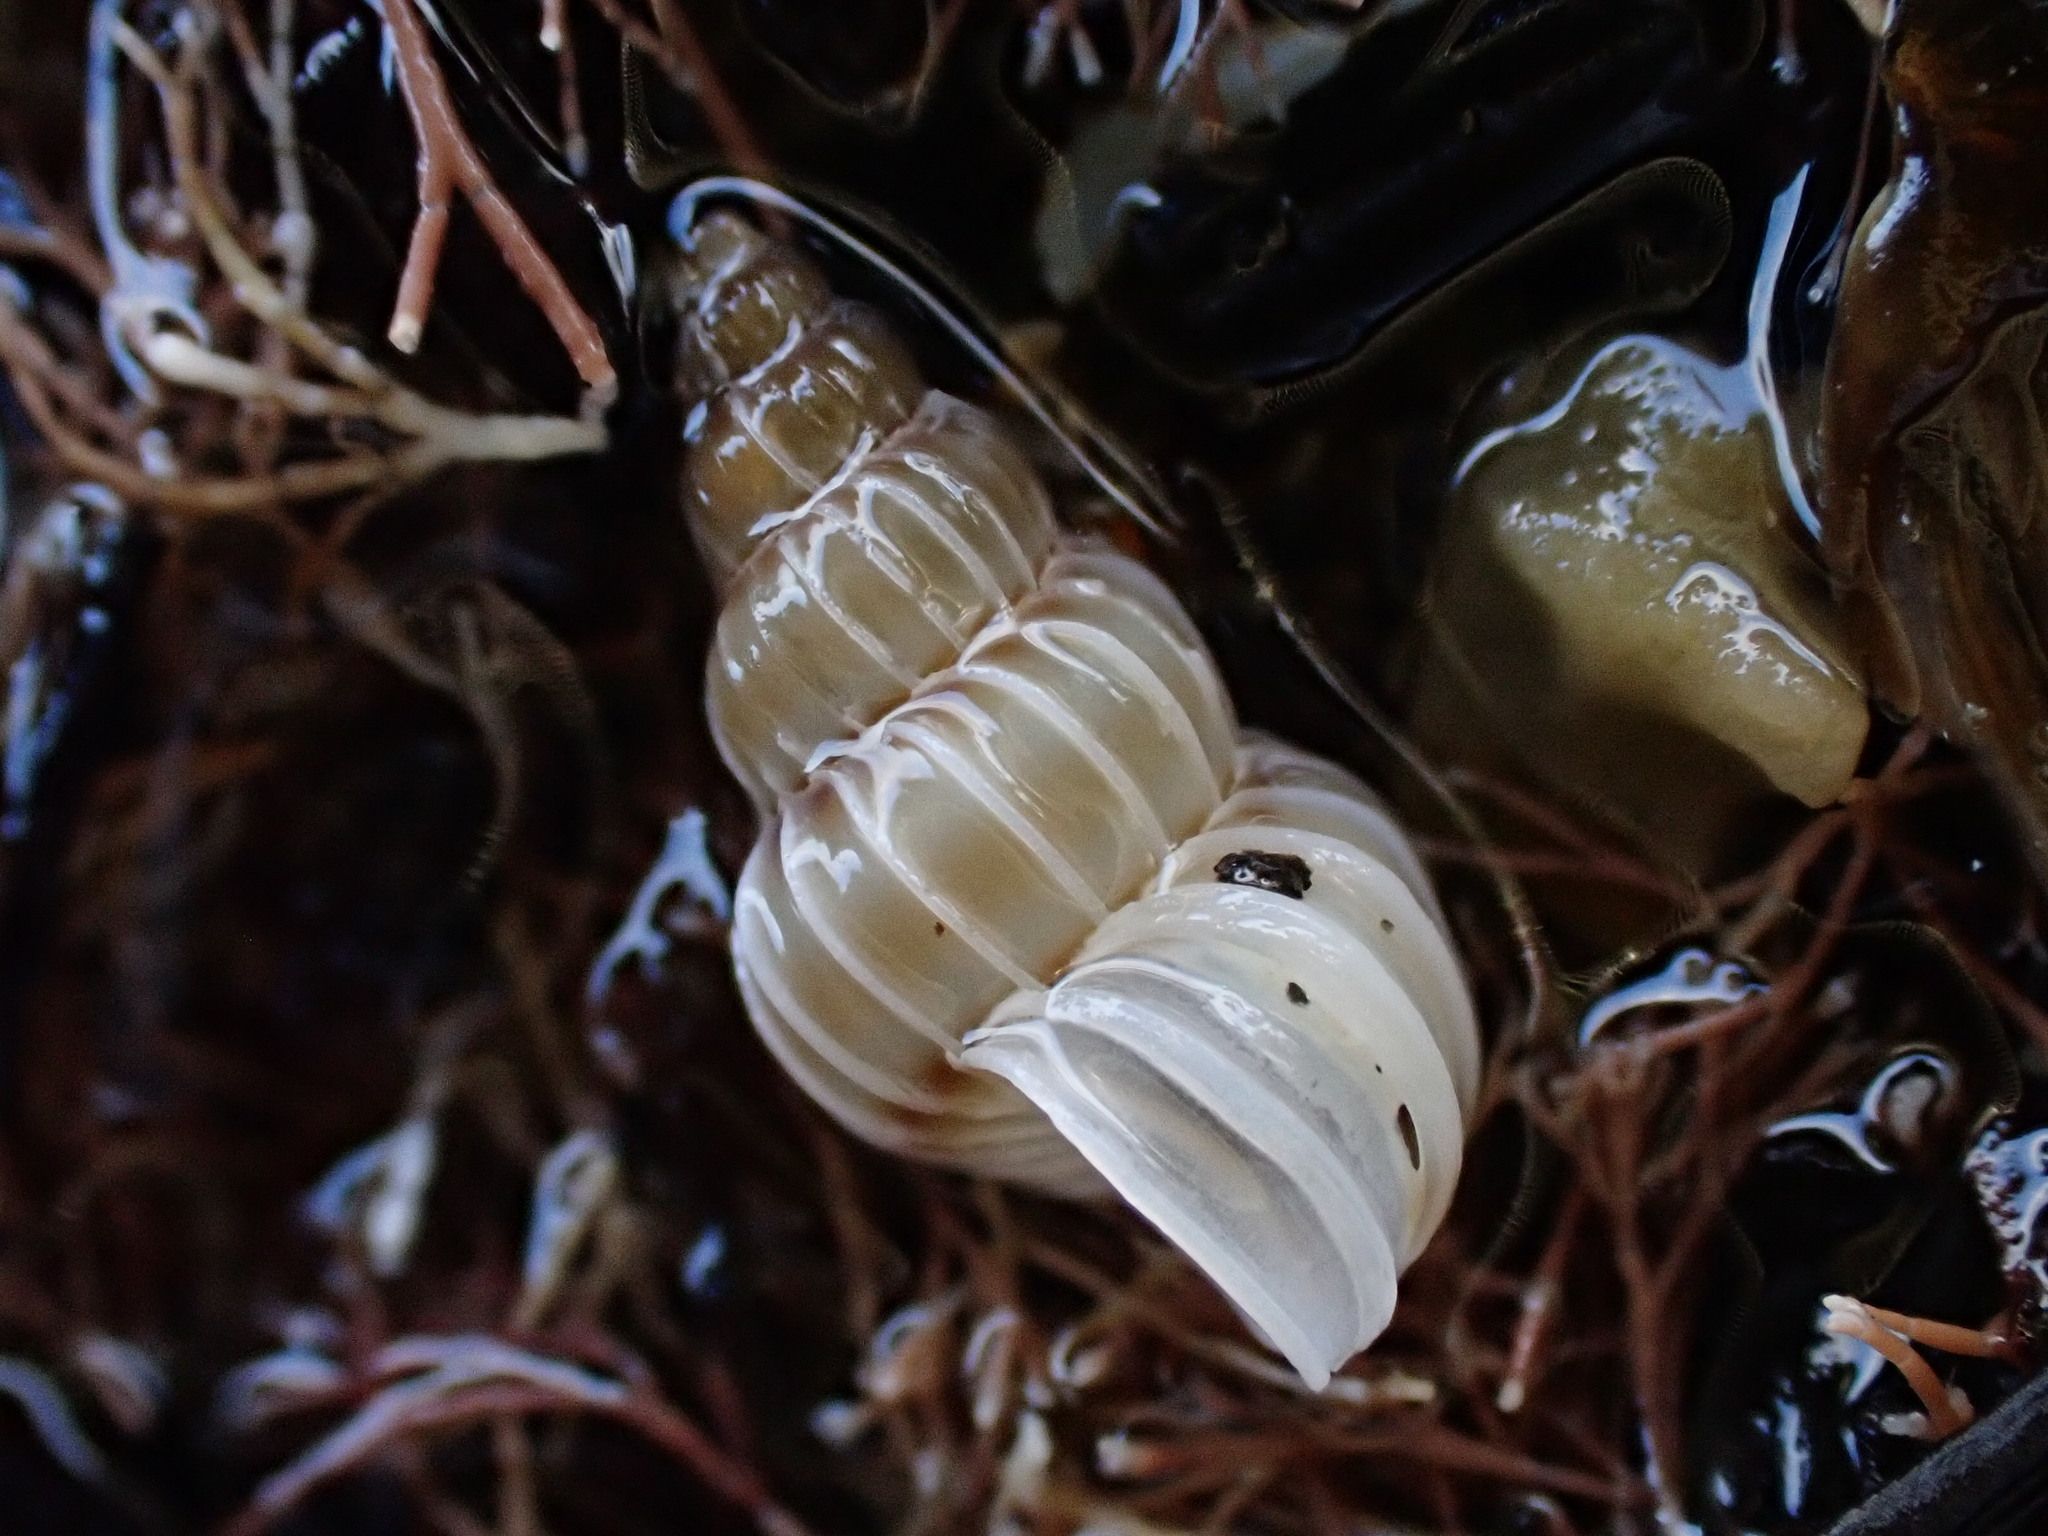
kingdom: Animalia
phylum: Mollusca
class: Gastropoda
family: Epitoniidae
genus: Epitonium
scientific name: Epitonium tenellum
